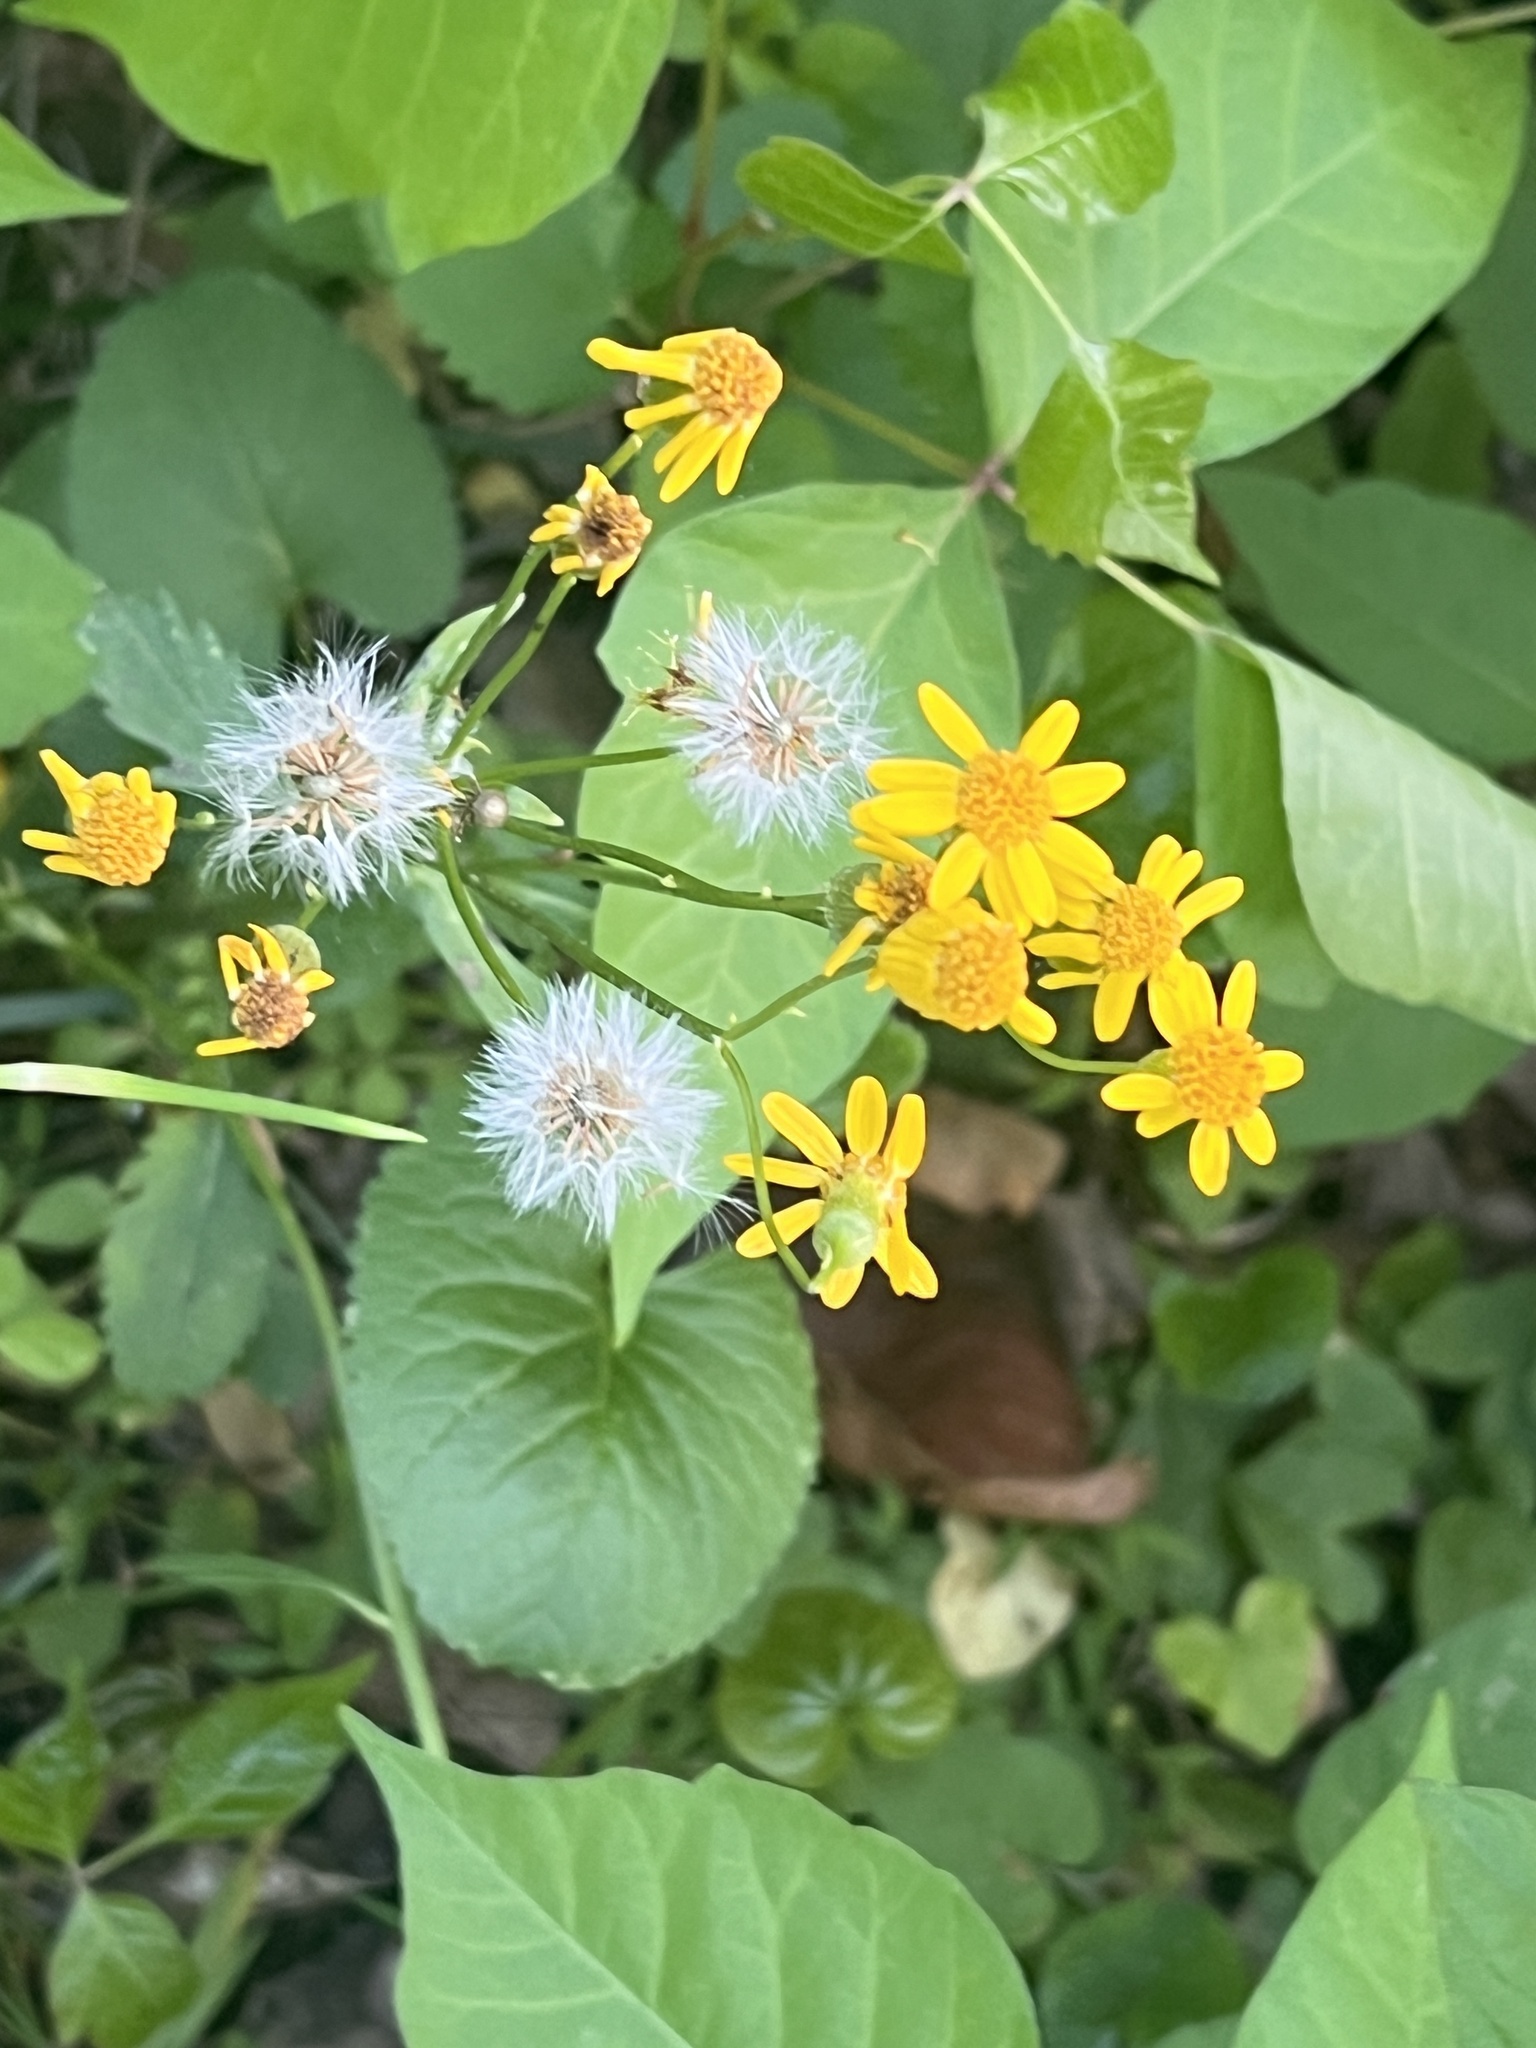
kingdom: Plantae
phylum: Tracheophyta
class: Magnoliopsida
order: Asterales
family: Asteraceae
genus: Packera
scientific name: Packera aurea
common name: Golden groundsel
